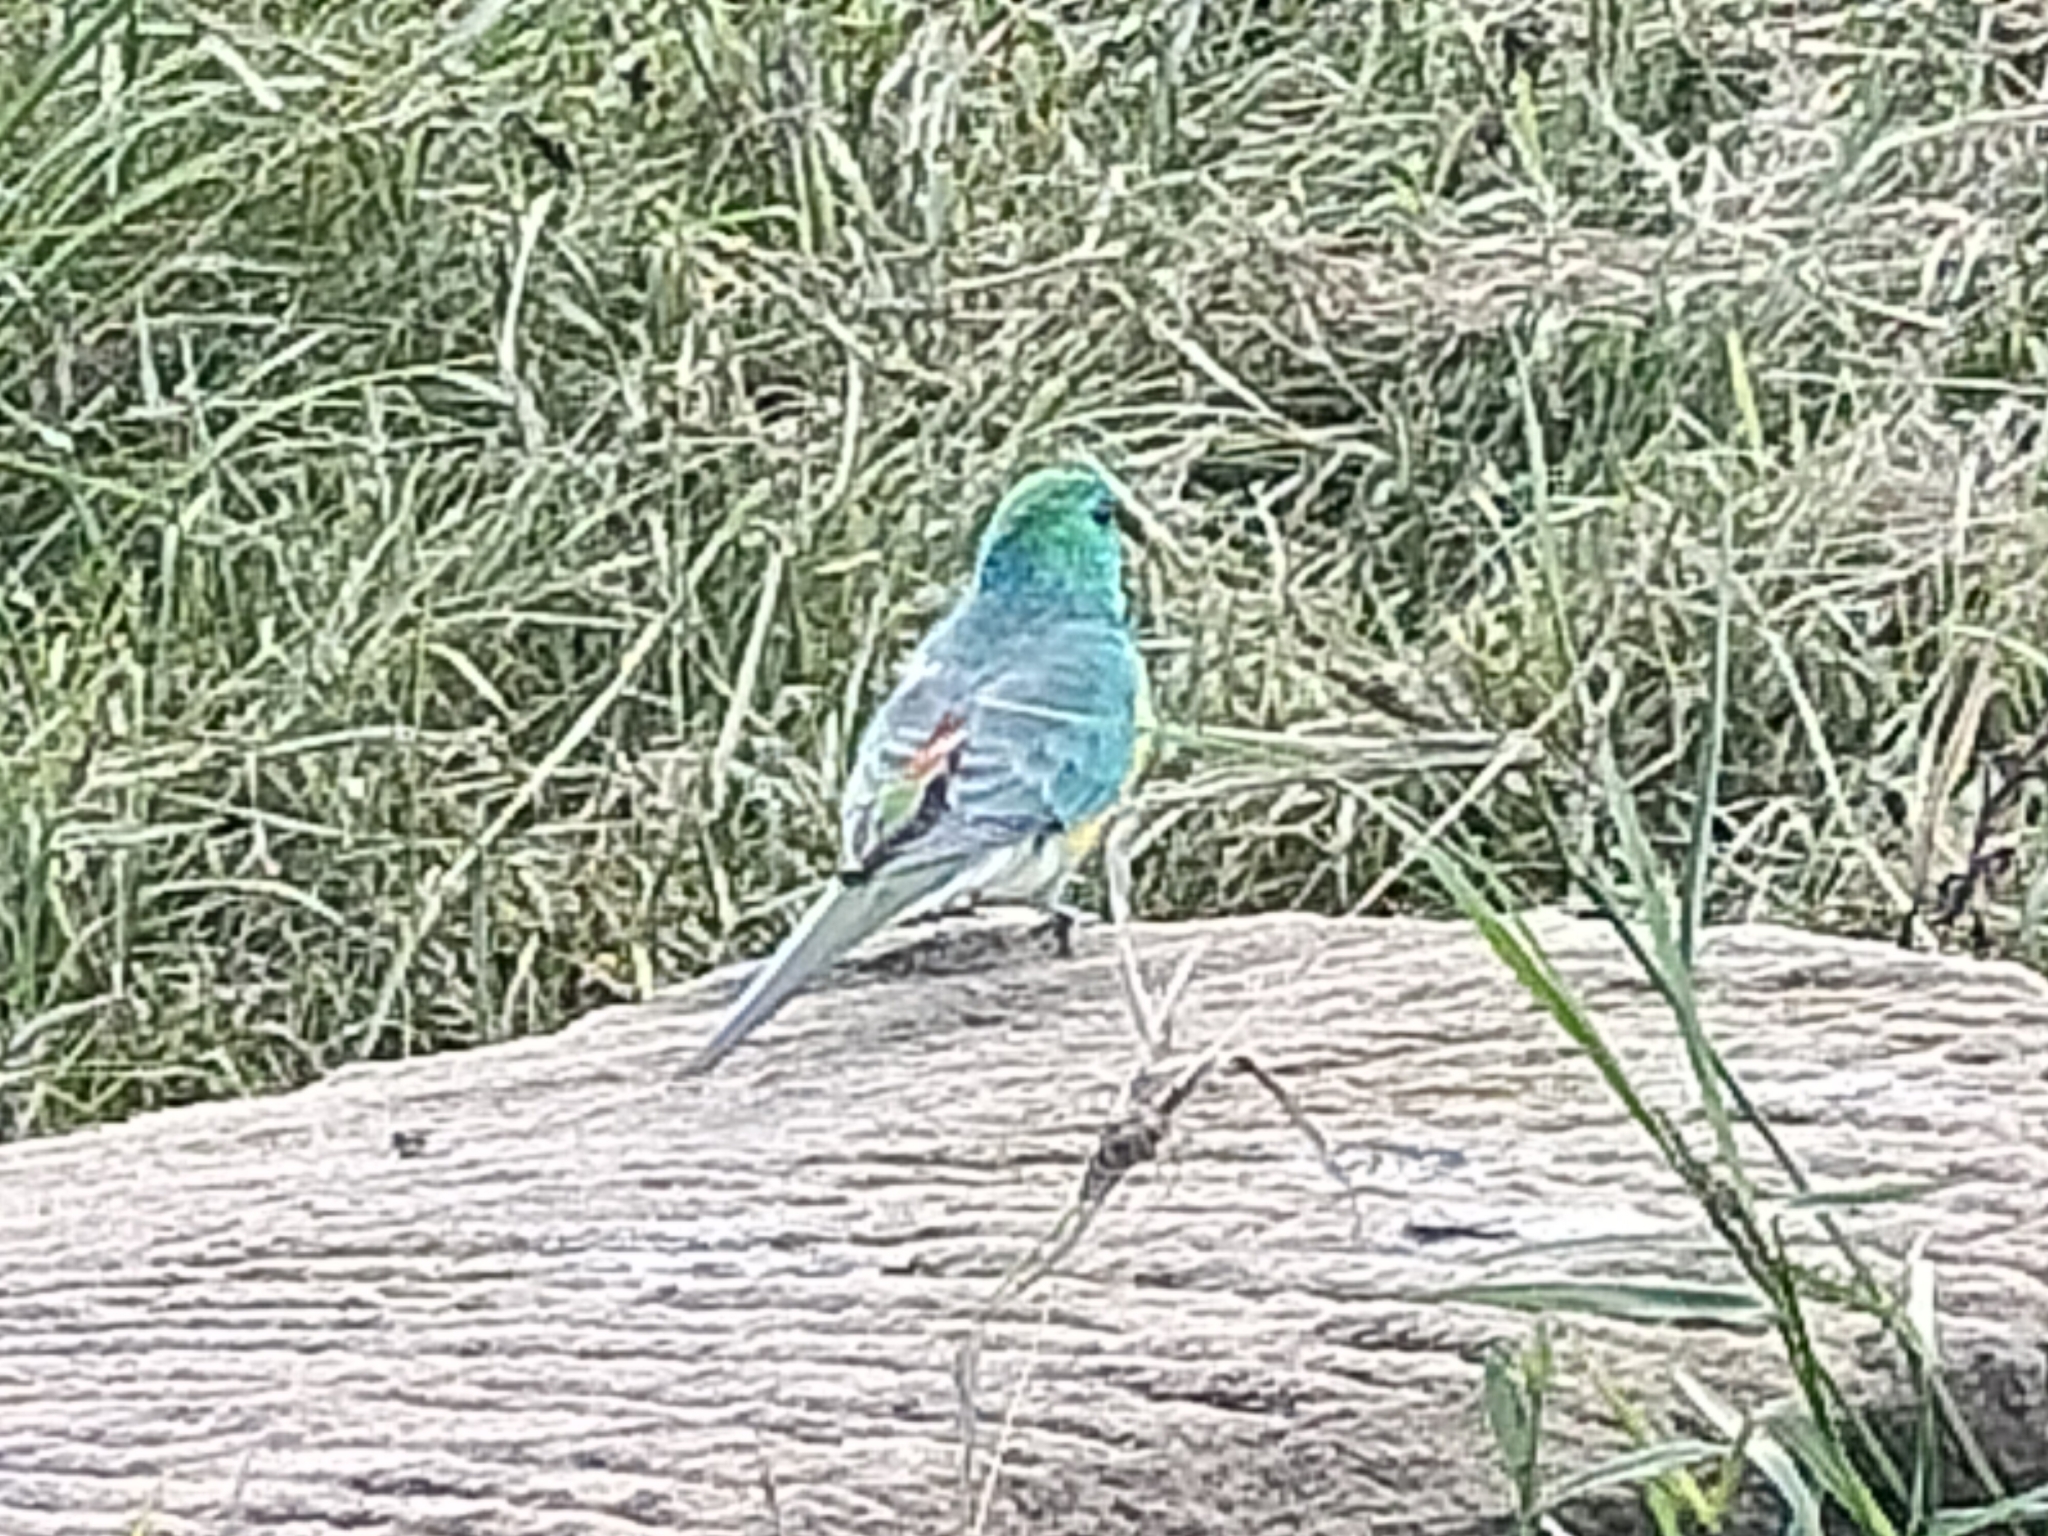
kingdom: Animalia
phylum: Chordata
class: Aves
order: Psittaciformes
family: Psittacidae
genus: Psephotus
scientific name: Psephotus haematonotus
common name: Red-rumped parrot
